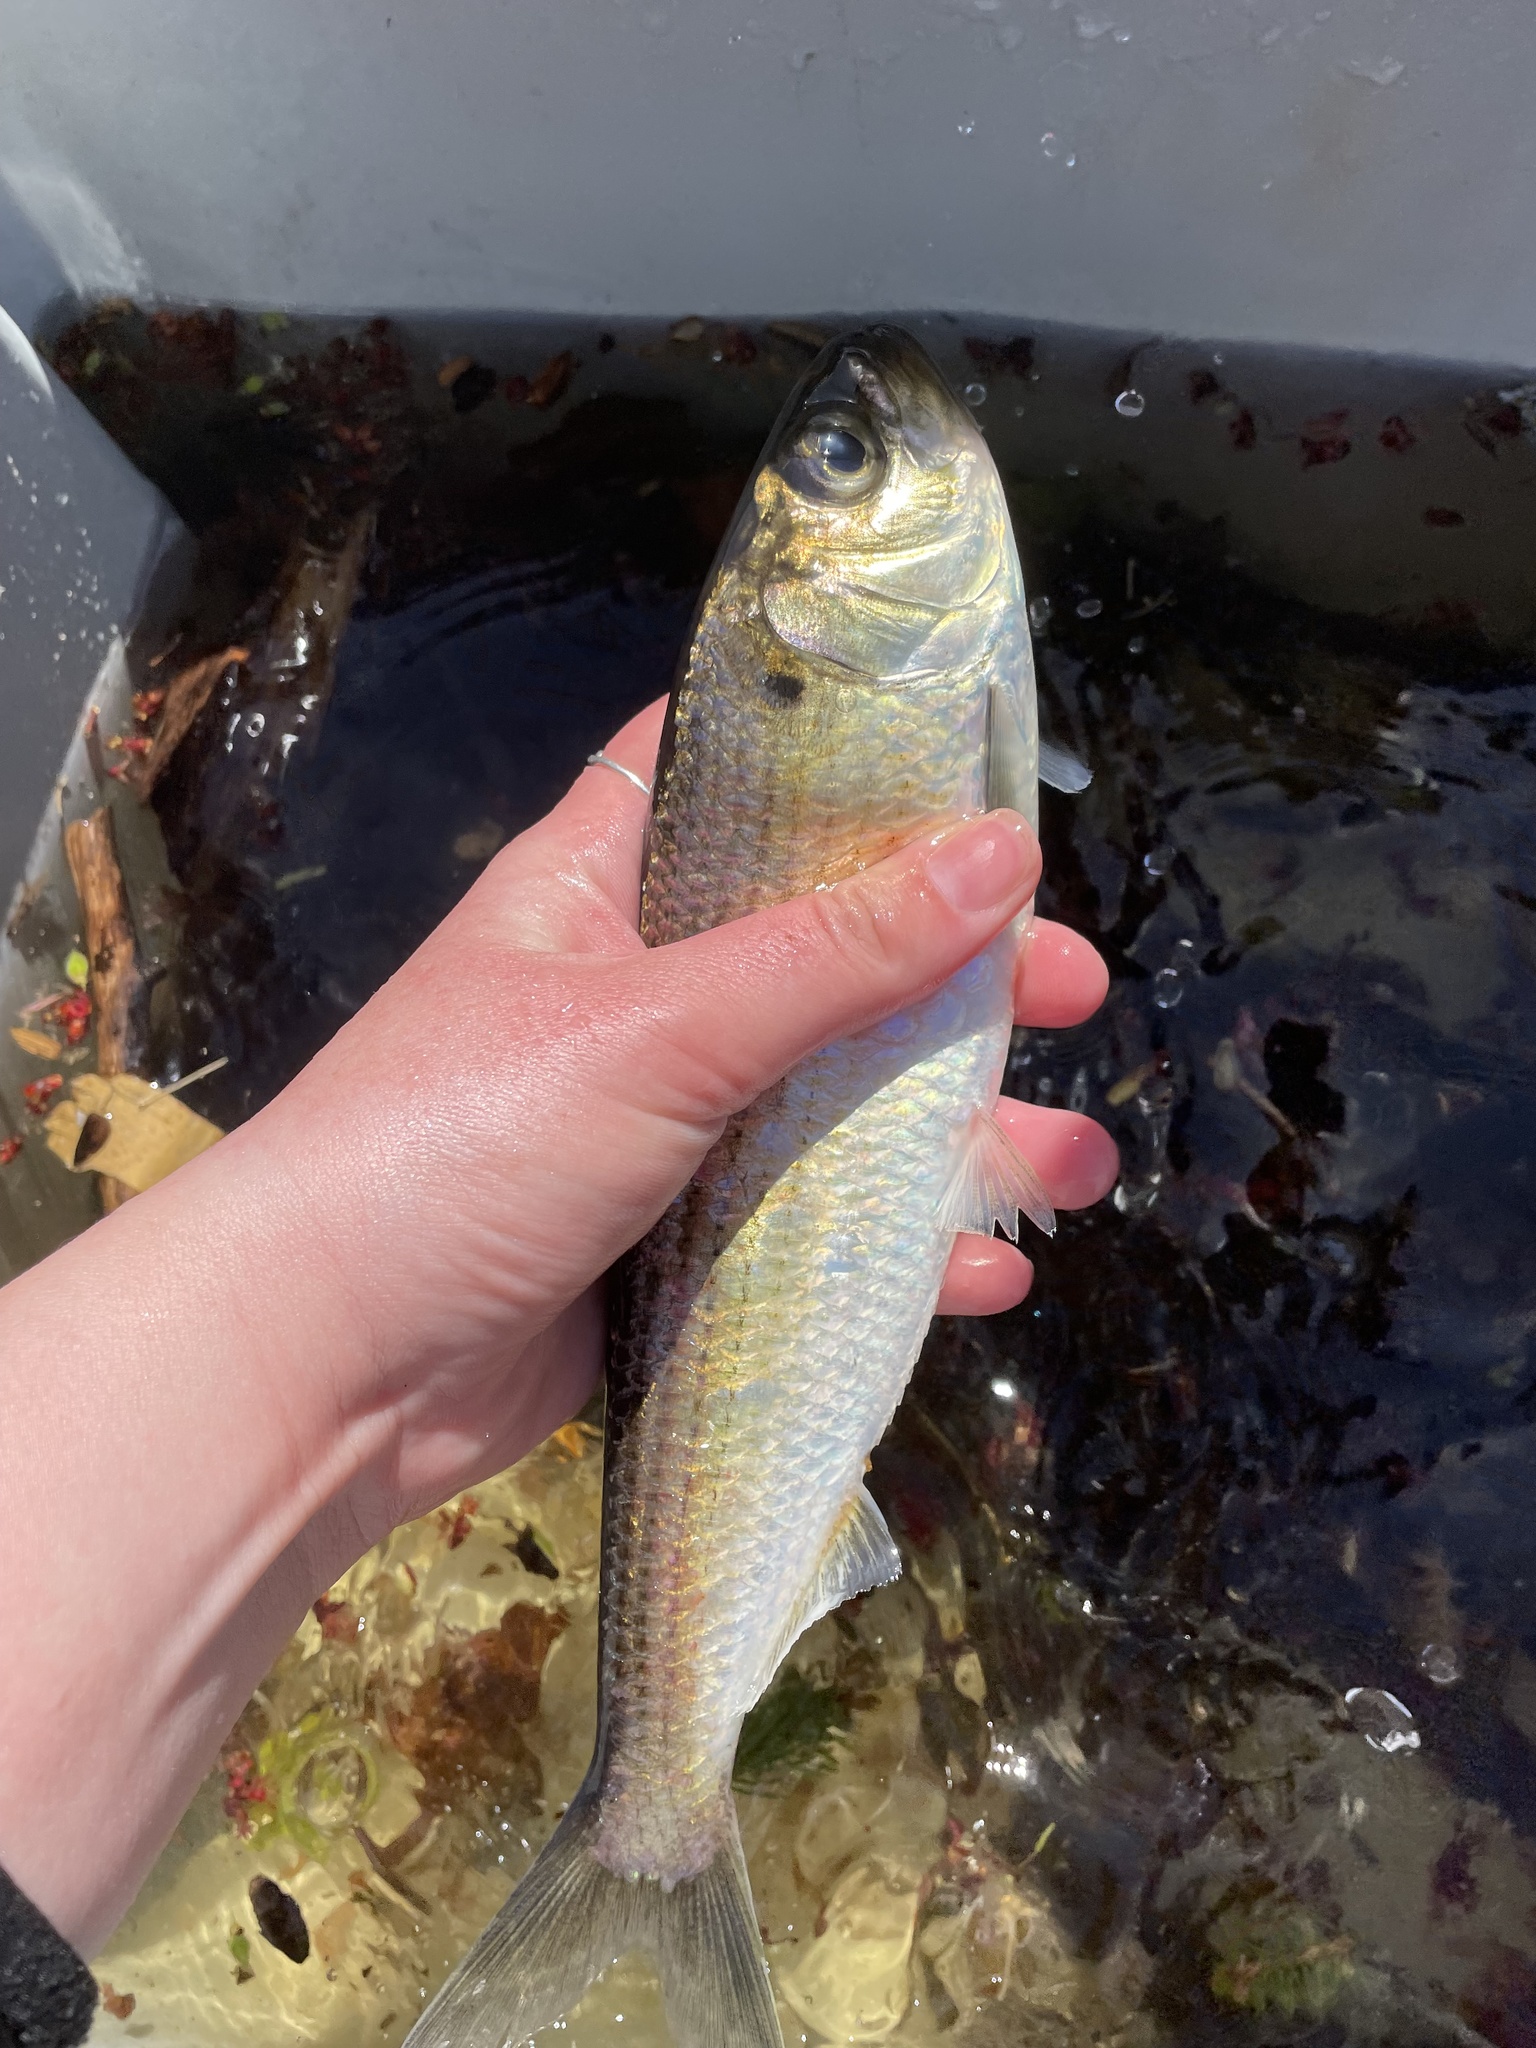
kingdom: Animalia
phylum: Chordata
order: Clupeiformes
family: Clupeidae
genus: Alosa
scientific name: Alosa pseudoharengus
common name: Alewife
